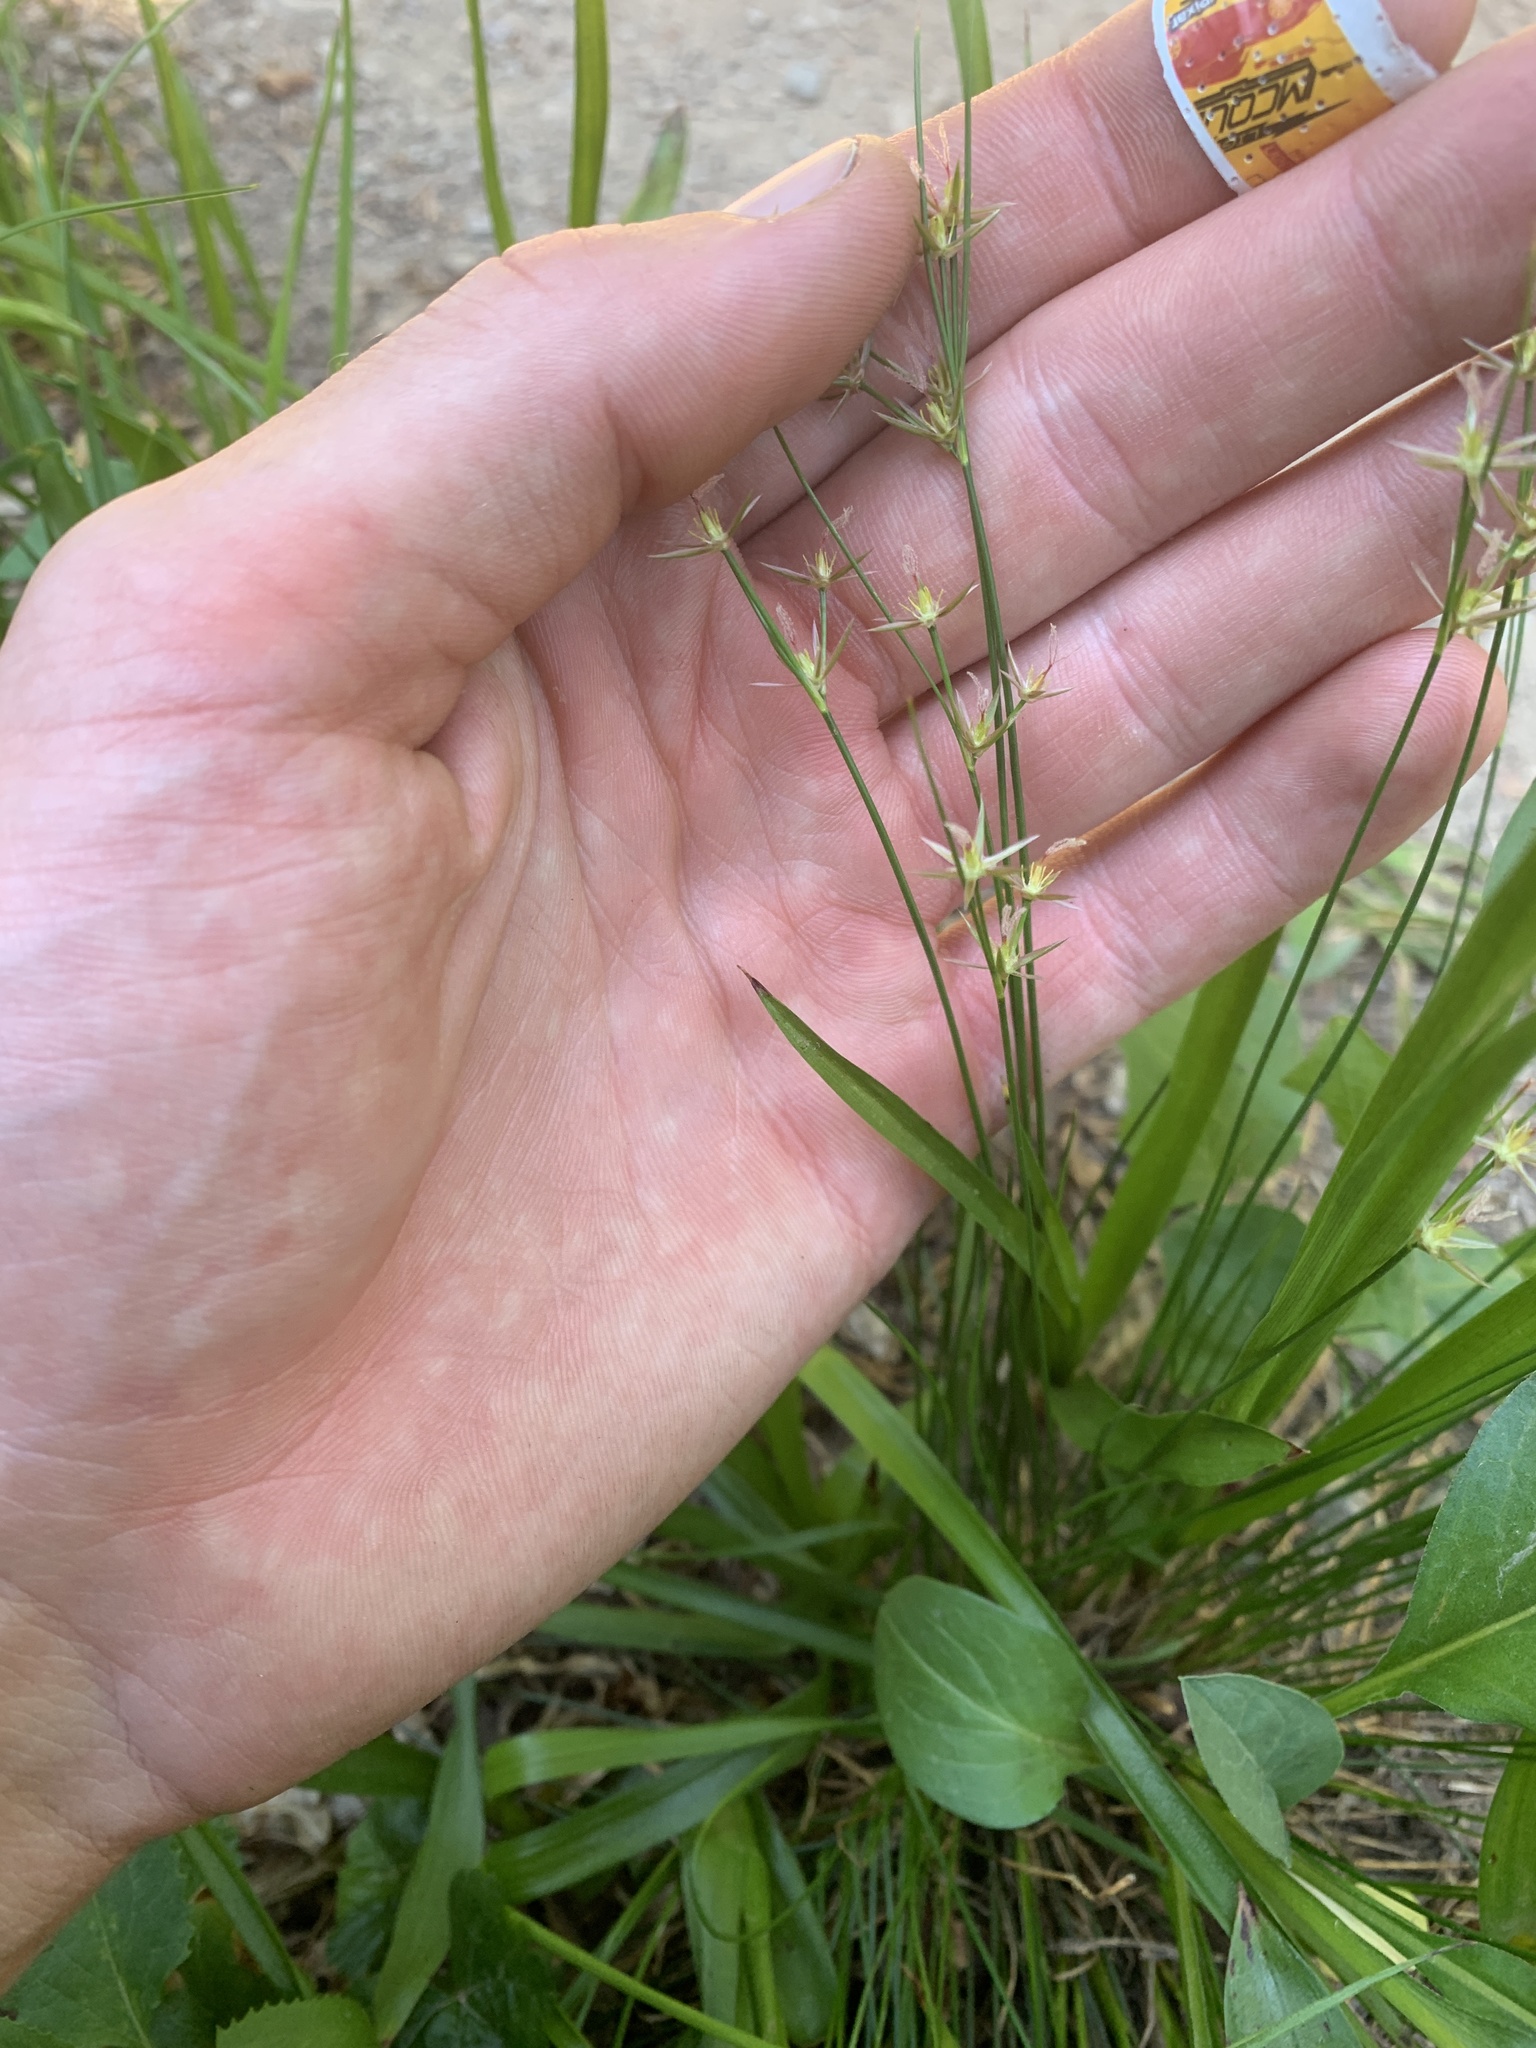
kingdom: Plantae
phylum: Tracheophyta
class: Liliopsida
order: Poales
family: Juncaceae
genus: Juncus
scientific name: Juncus balticus
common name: Baltic rush
